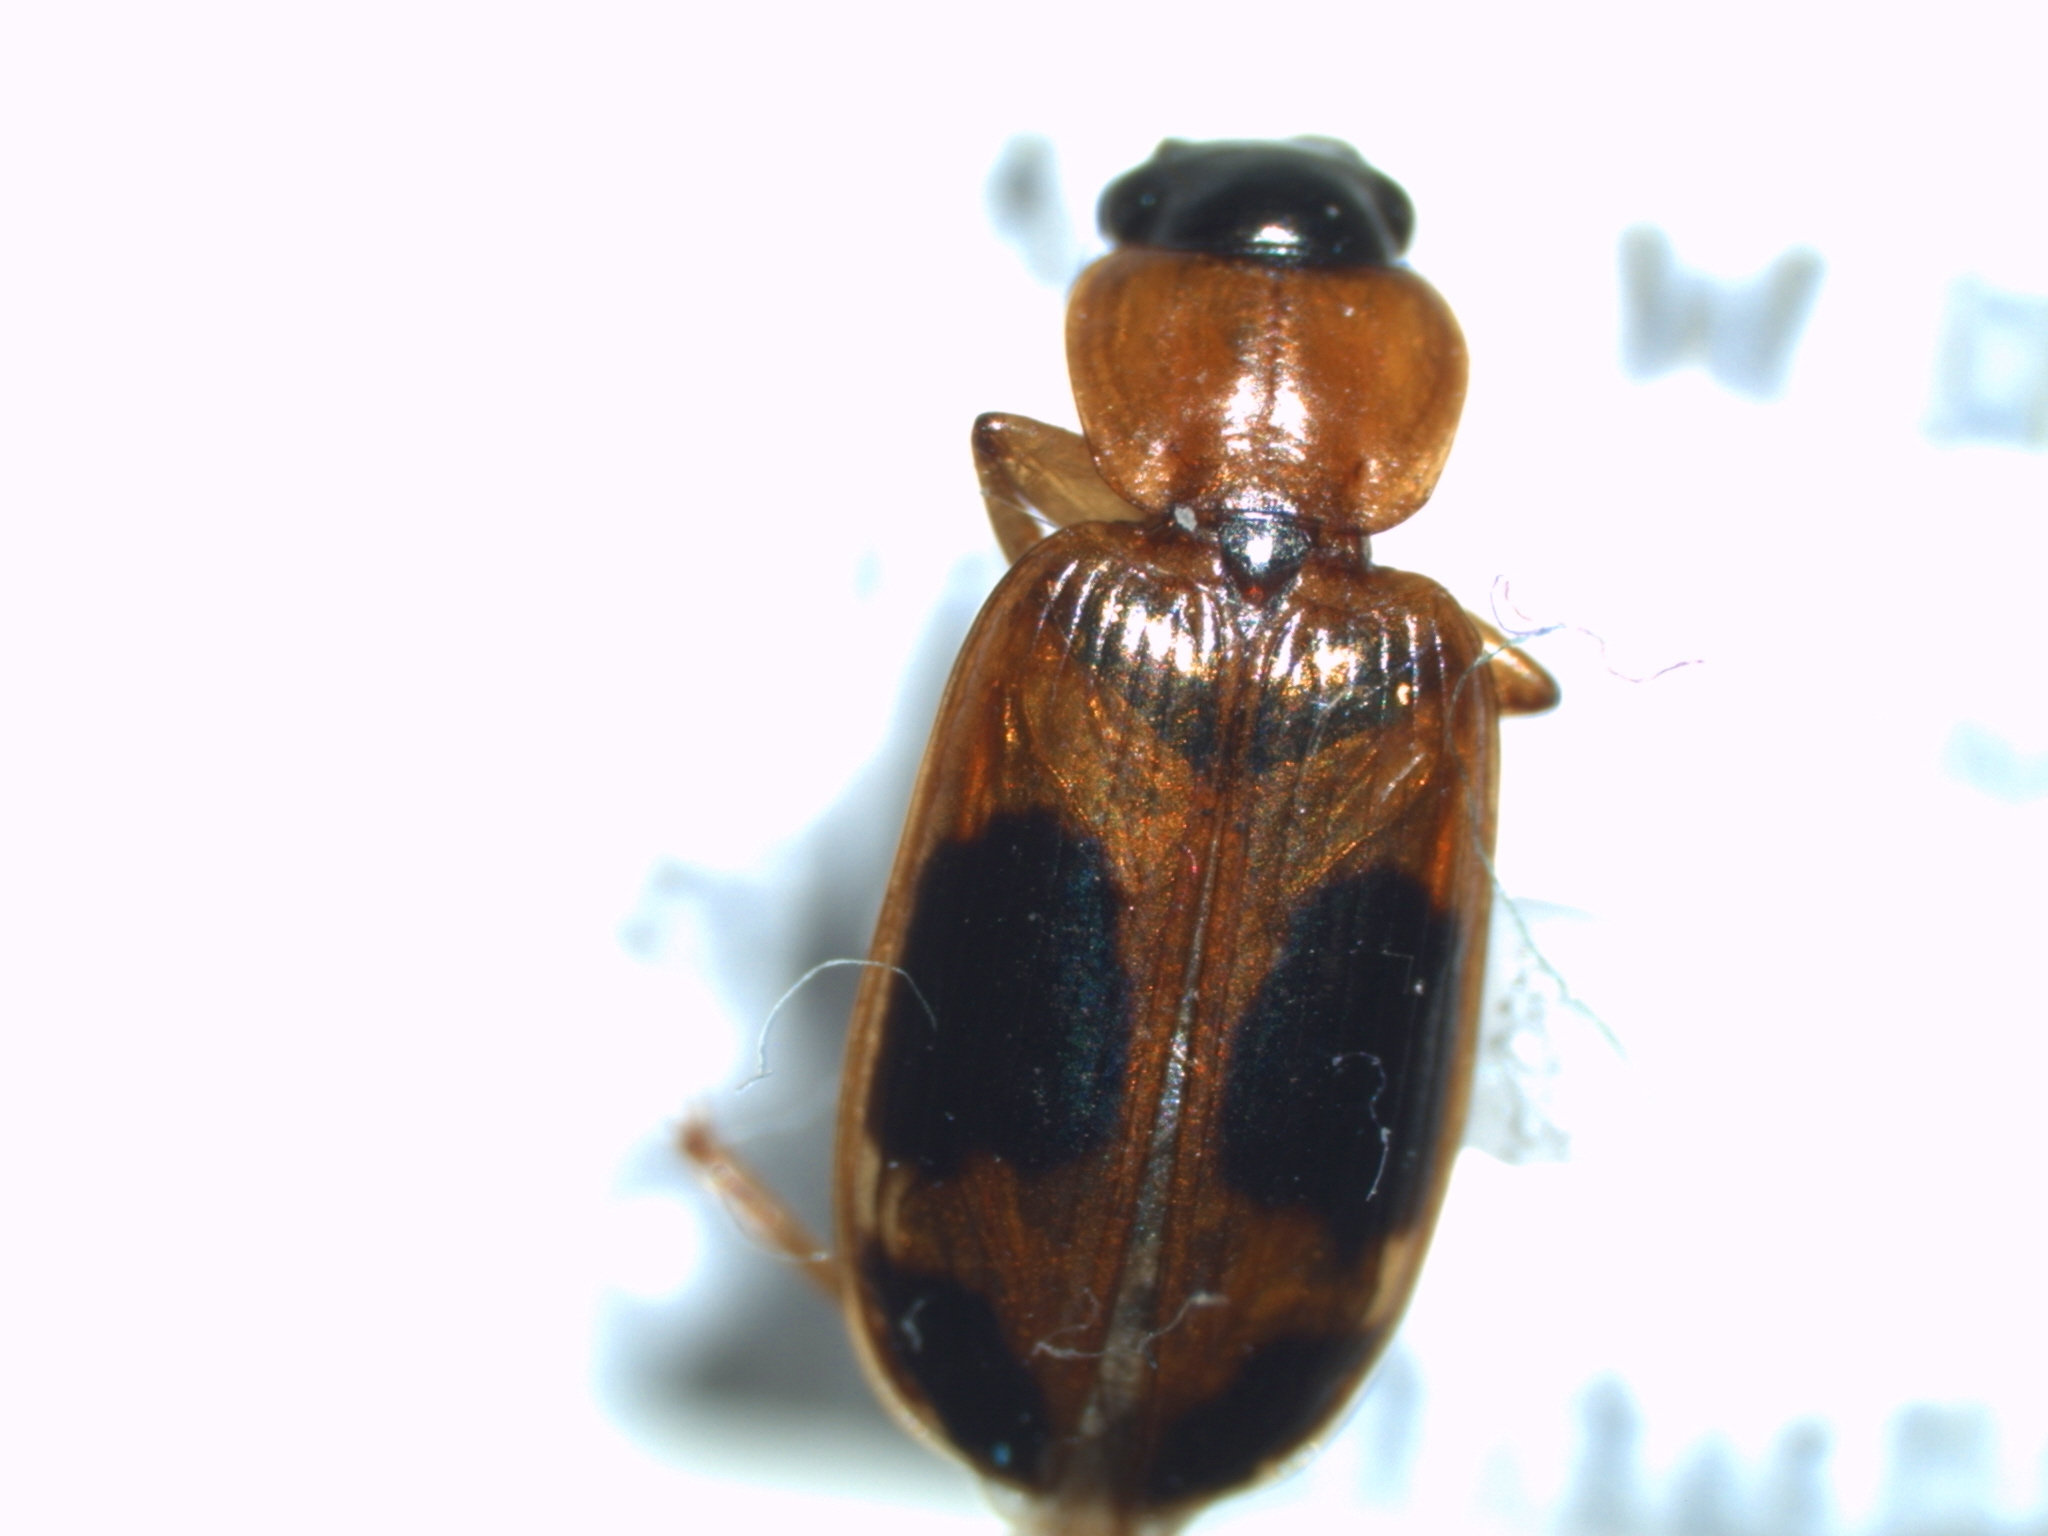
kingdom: Animalia
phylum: Arthropoda
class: Insecta
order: Coleoptera
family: Carabidae
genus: Badister
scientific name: Badister neopulchellus
